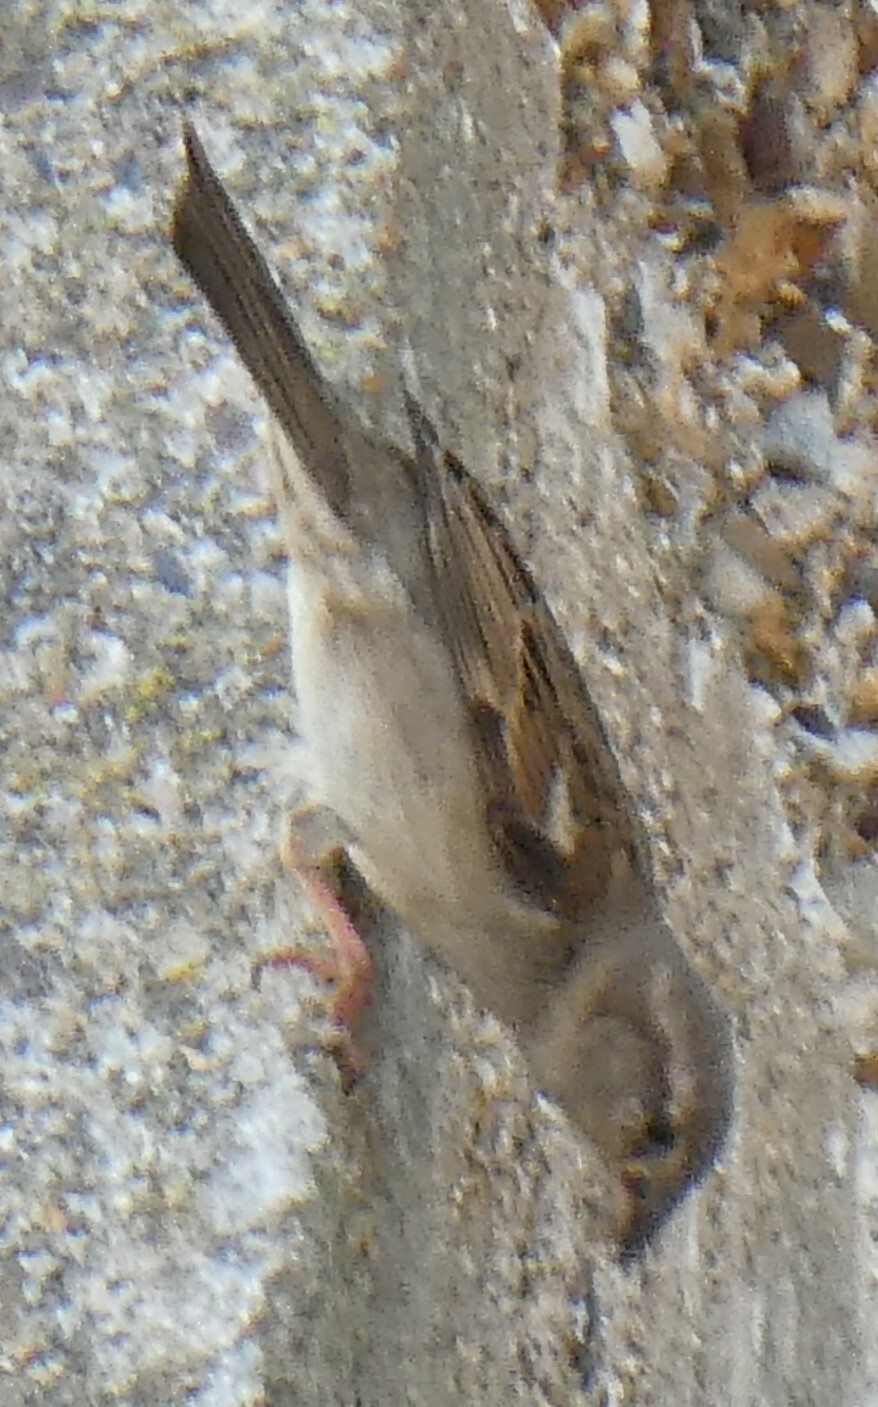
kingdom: Animalia
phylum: Chordata
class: Aves
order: Passeriformes
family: Passeridae
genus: Passer
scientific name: Passer domesticus
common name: House sparrow
